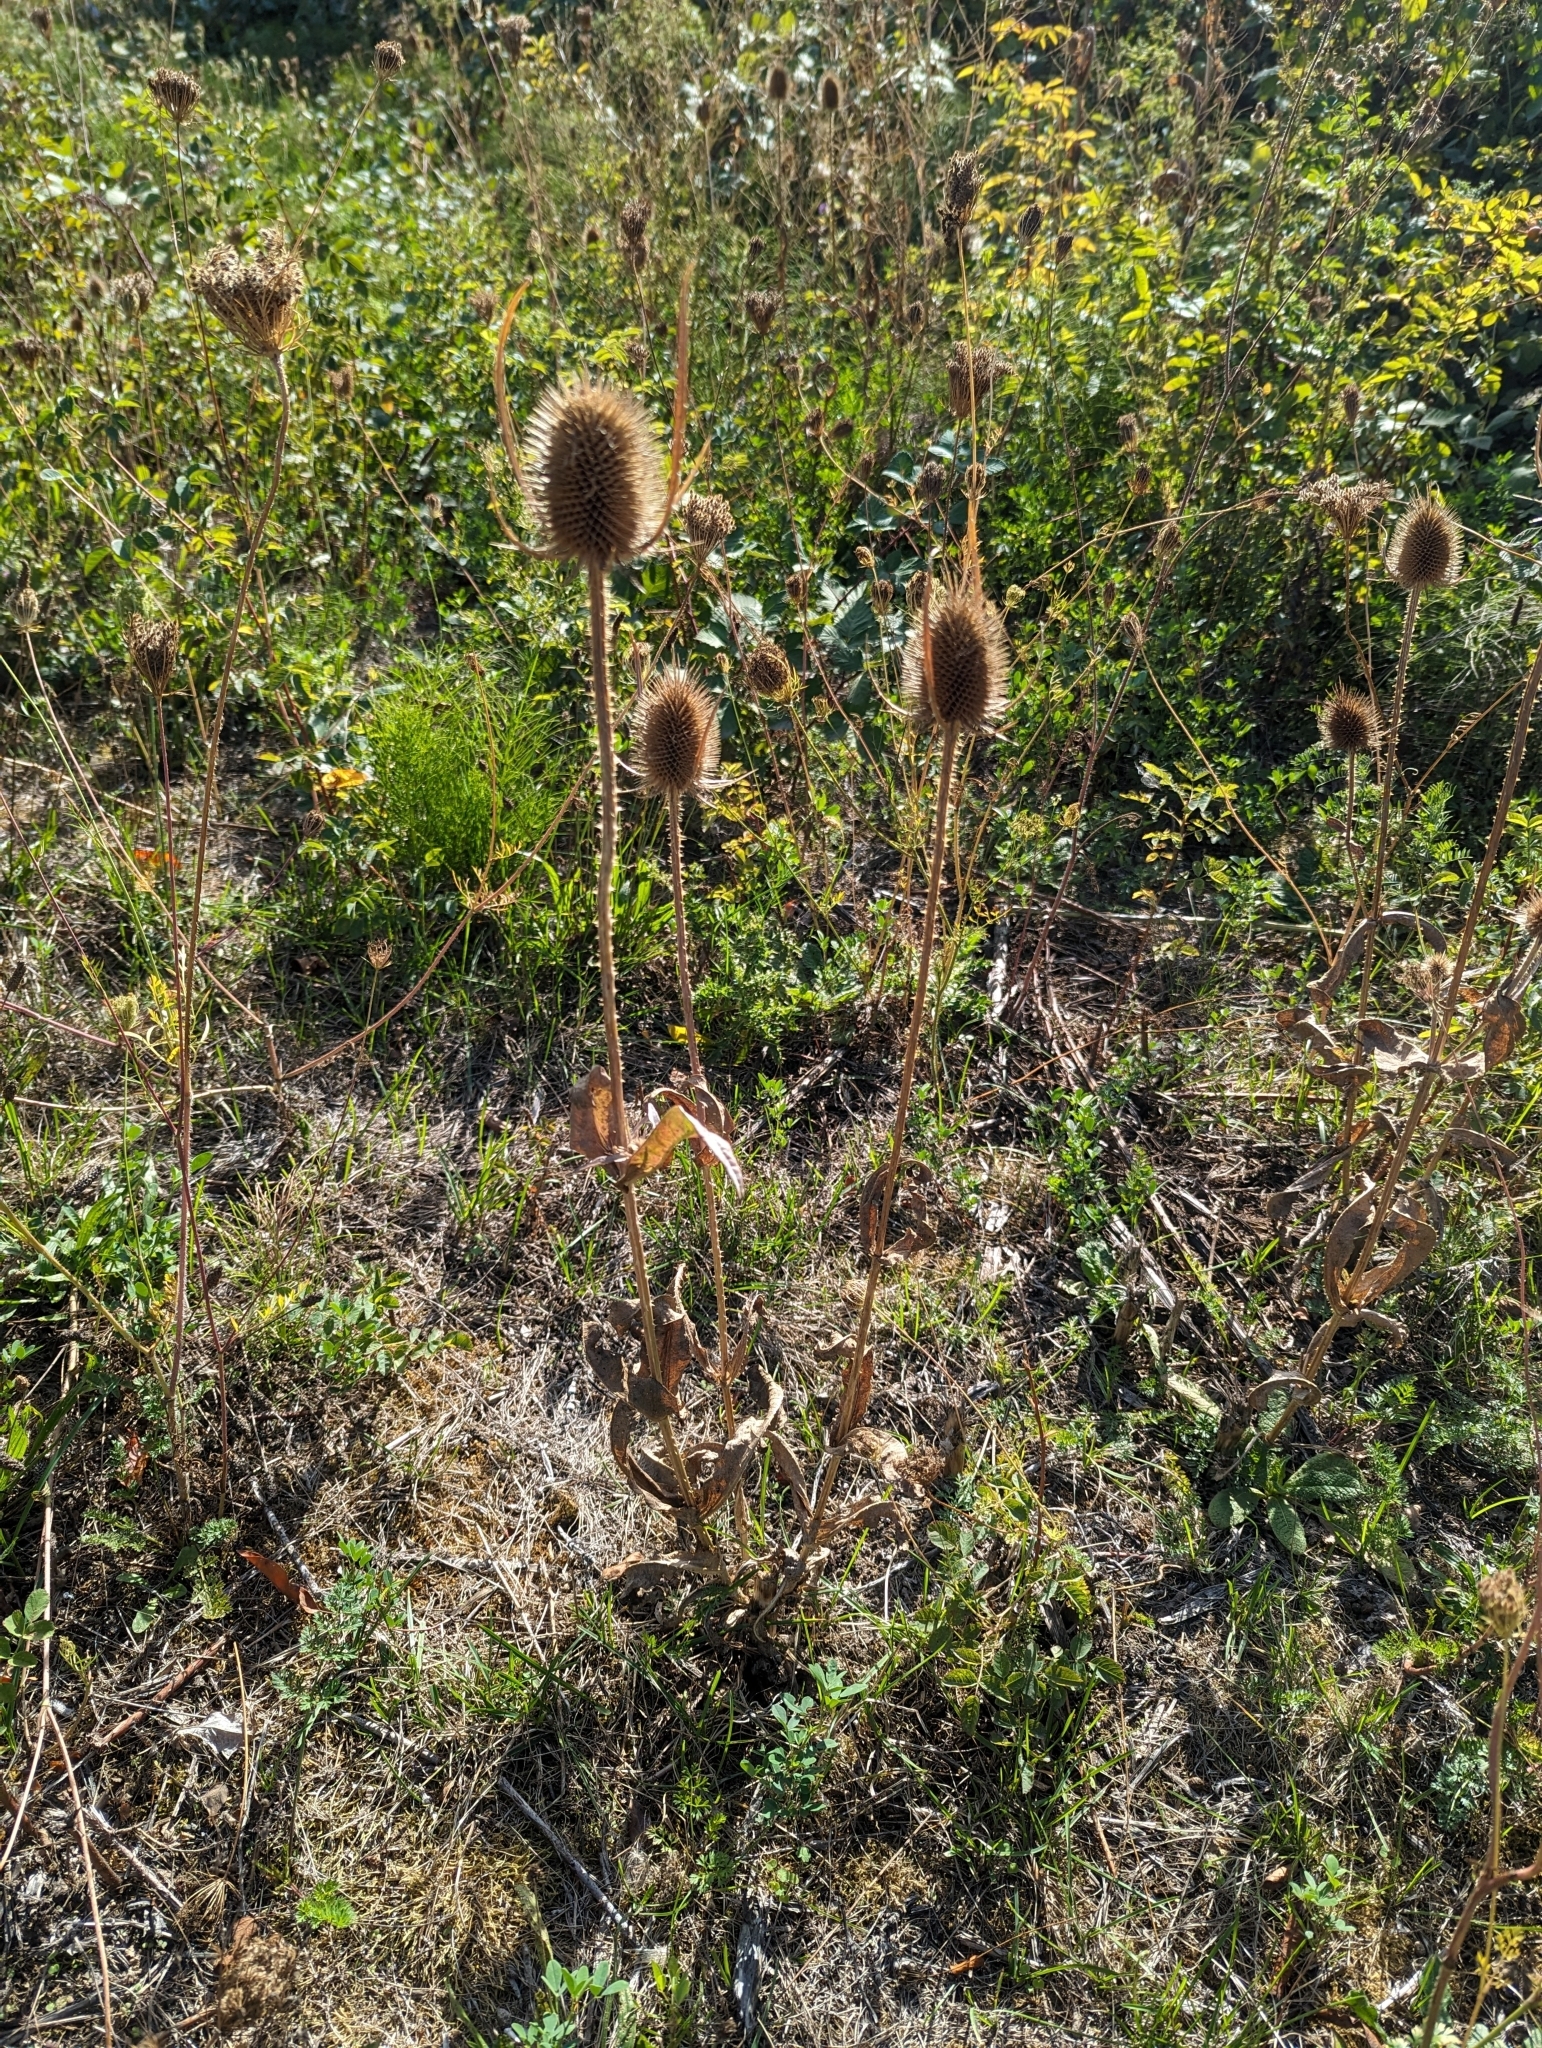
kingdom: Plantae
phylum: Tracheophyta
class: Magnoliopsida
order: Dipsacales
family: Caprifoliaceae
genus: Dipsacus
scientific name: Dipsacus fullonum
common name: Teasel
